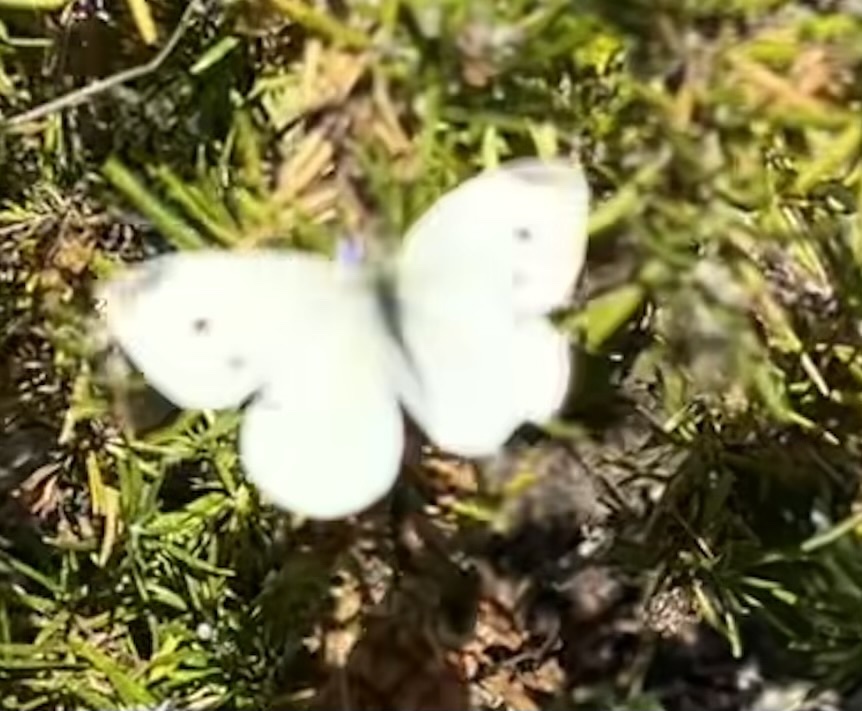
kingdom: Animalia
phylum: Arthropoda
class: Insecta
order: Lepidoptera
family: Pieridae
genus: Pieris
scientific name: Pieris rapae
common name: Small white
